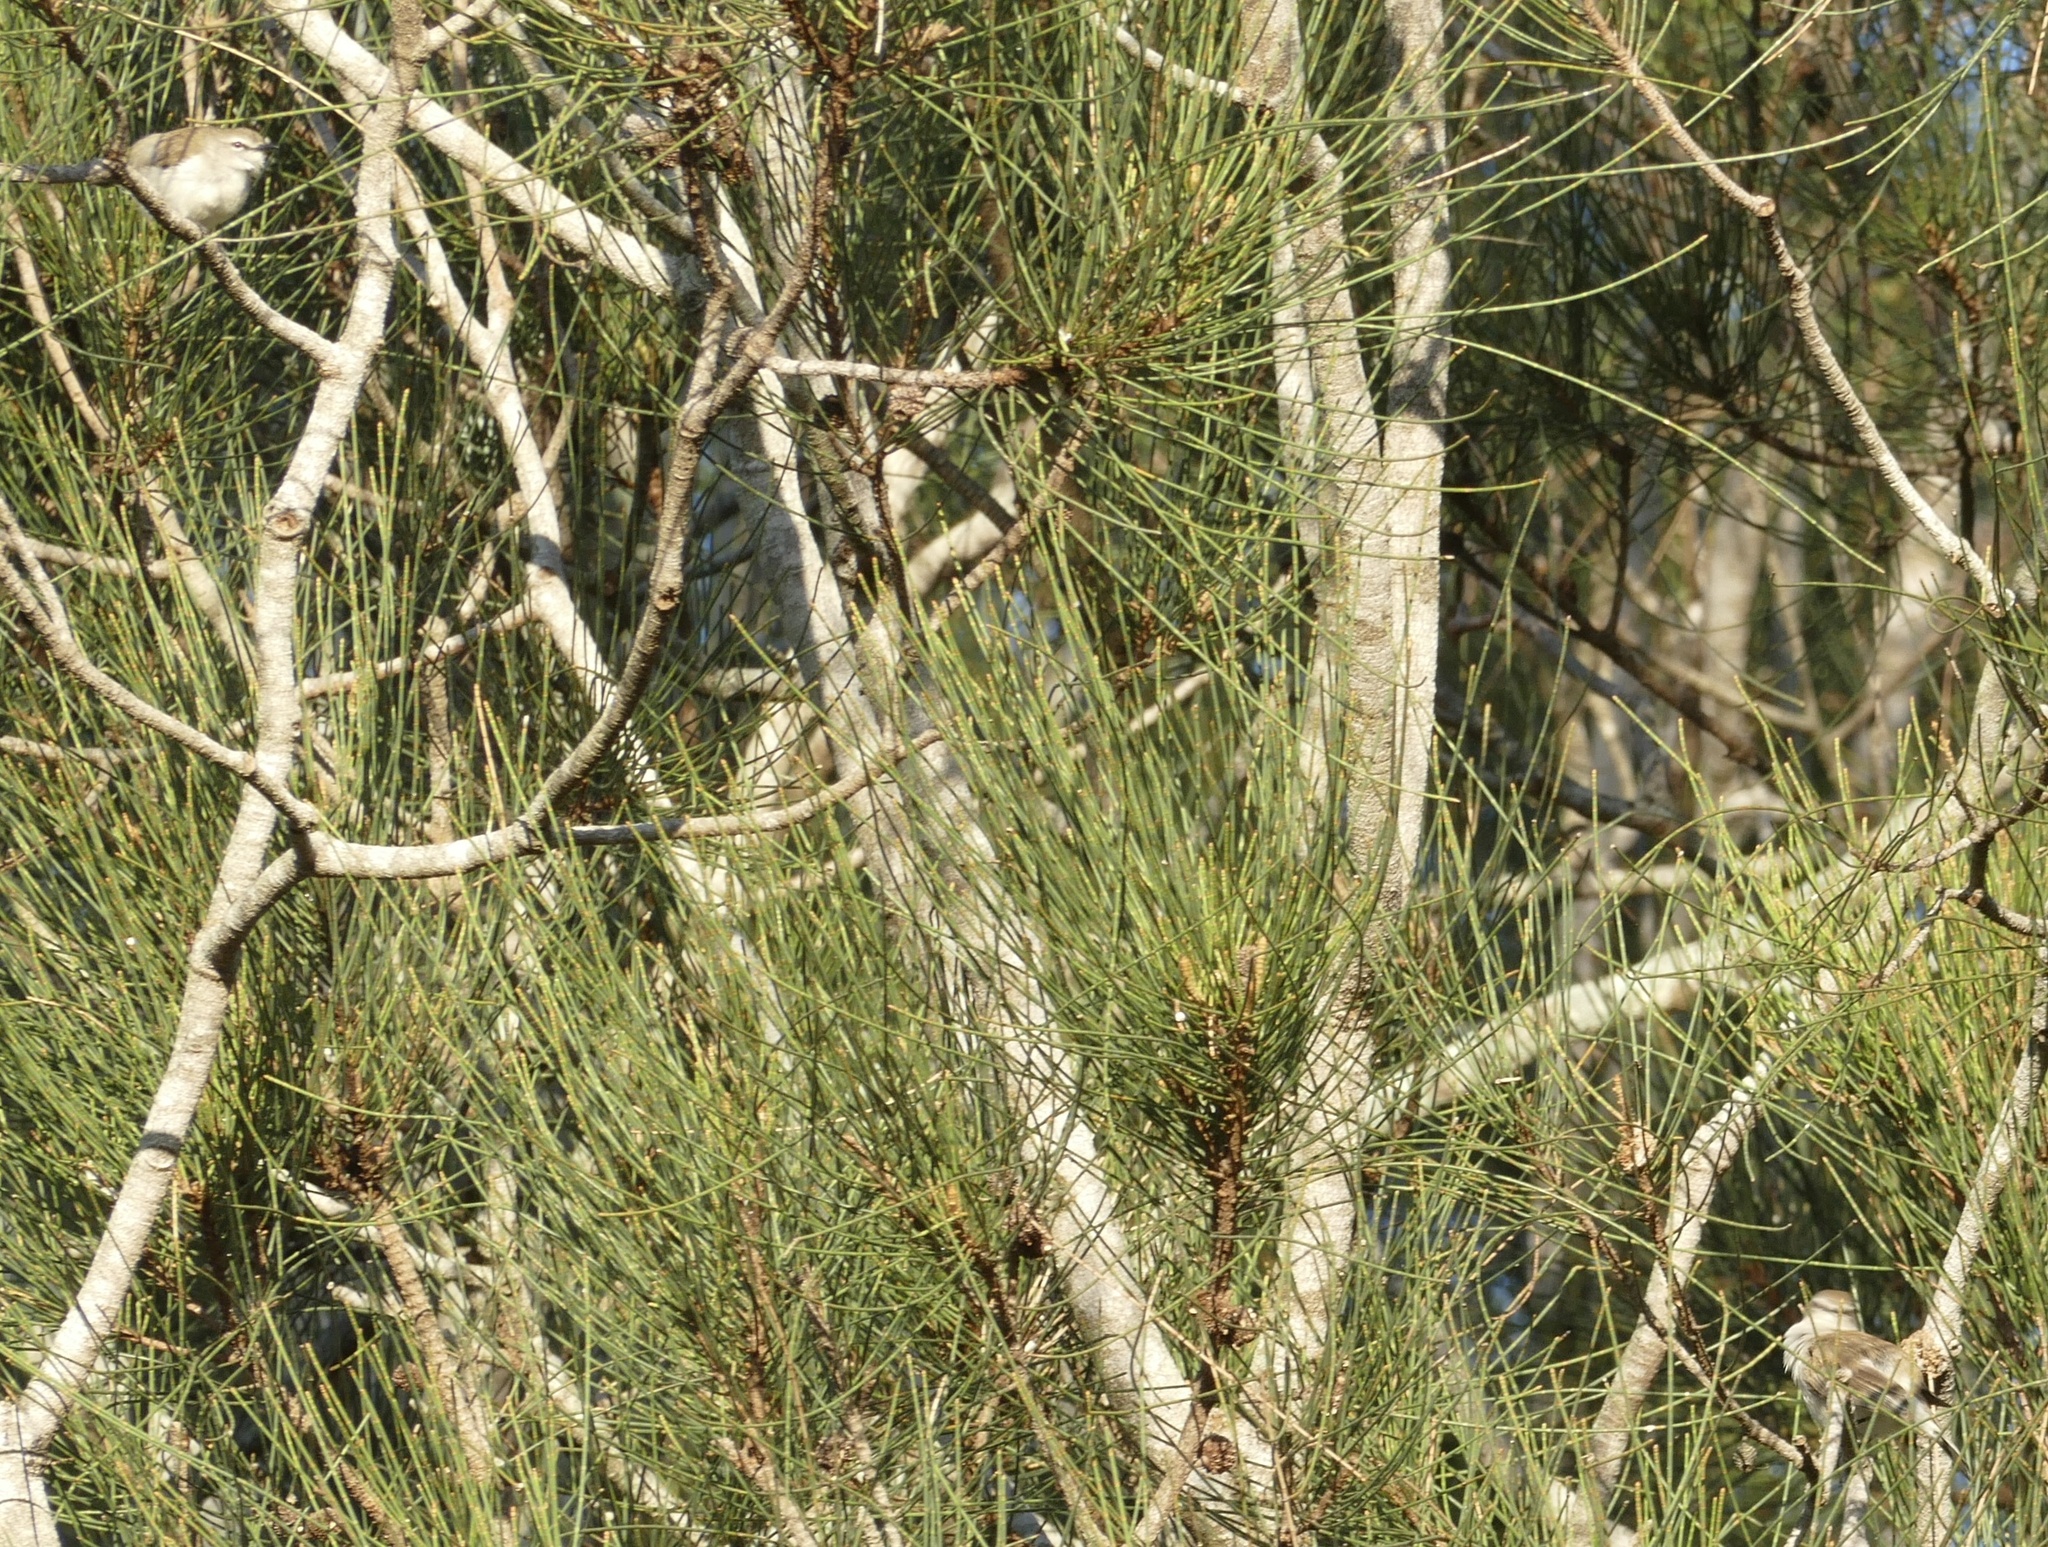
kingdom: Animalia
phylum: Chordata
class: Aves
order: Passeriformes
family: Acanthizidae
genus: Gerygone
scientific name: Gerygone levigaster
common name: Mangrove gerygone
